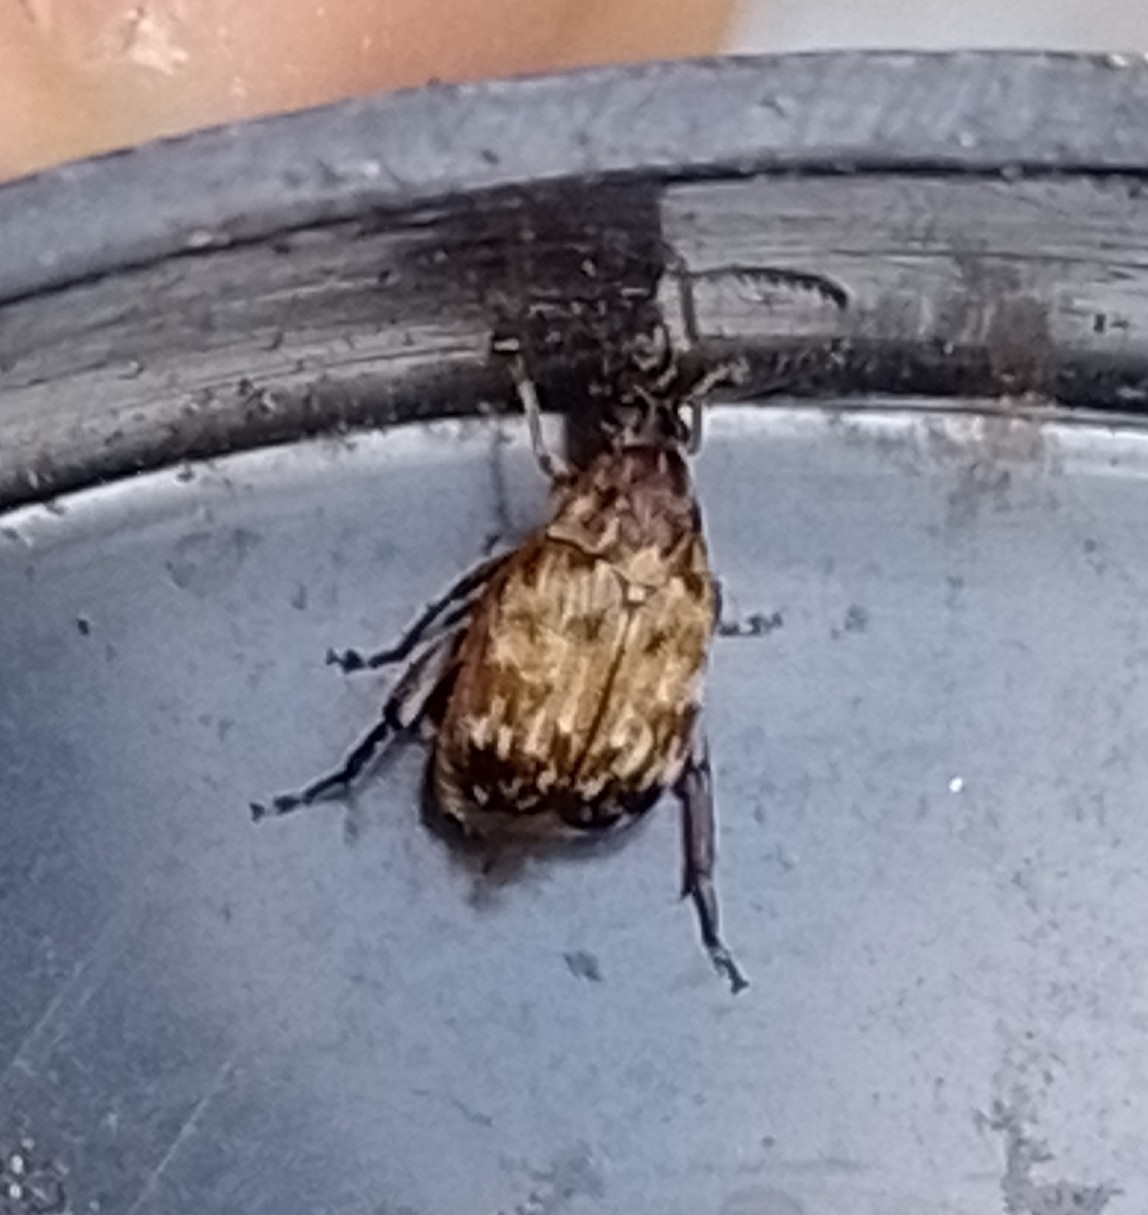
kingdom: Animalia
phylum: Arthropoda
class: Insecta
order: Coleoptera
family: Chrysomelidae
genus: Megabruchidius
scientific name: Megabruchidius tonkineus
